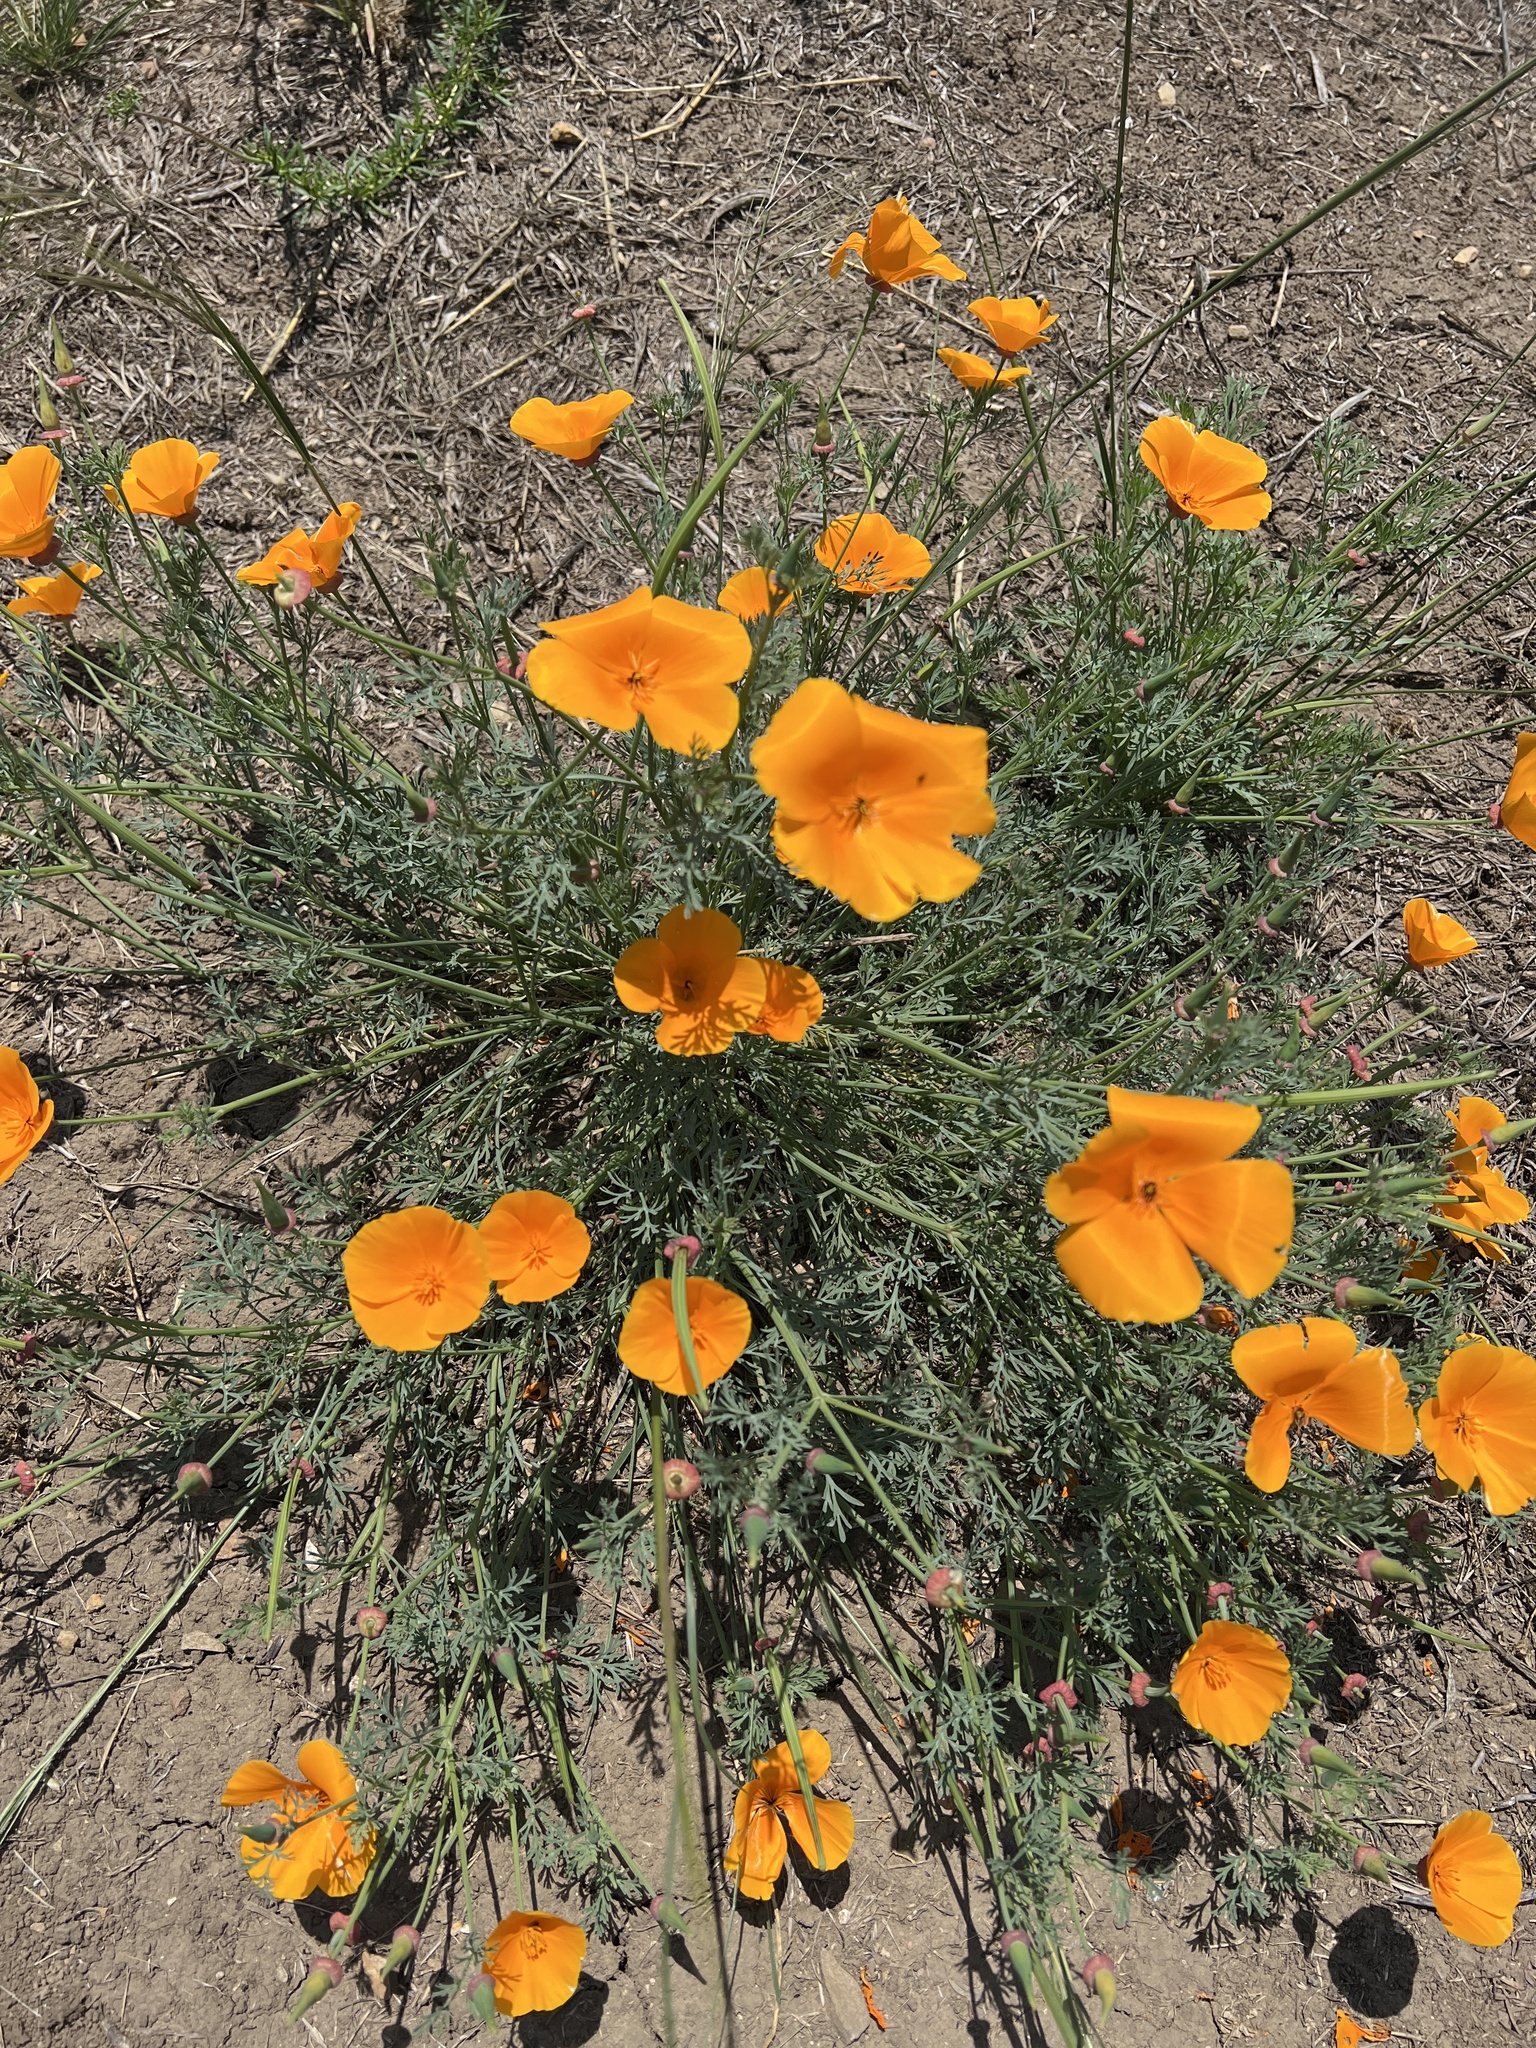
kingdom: Plantae
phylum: Tracheophyta
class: Magnoliopsida
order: Ranunculales
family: Papaveraceae
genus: Eschscholzia
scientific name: Eschscholzia californica
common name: California poppy
